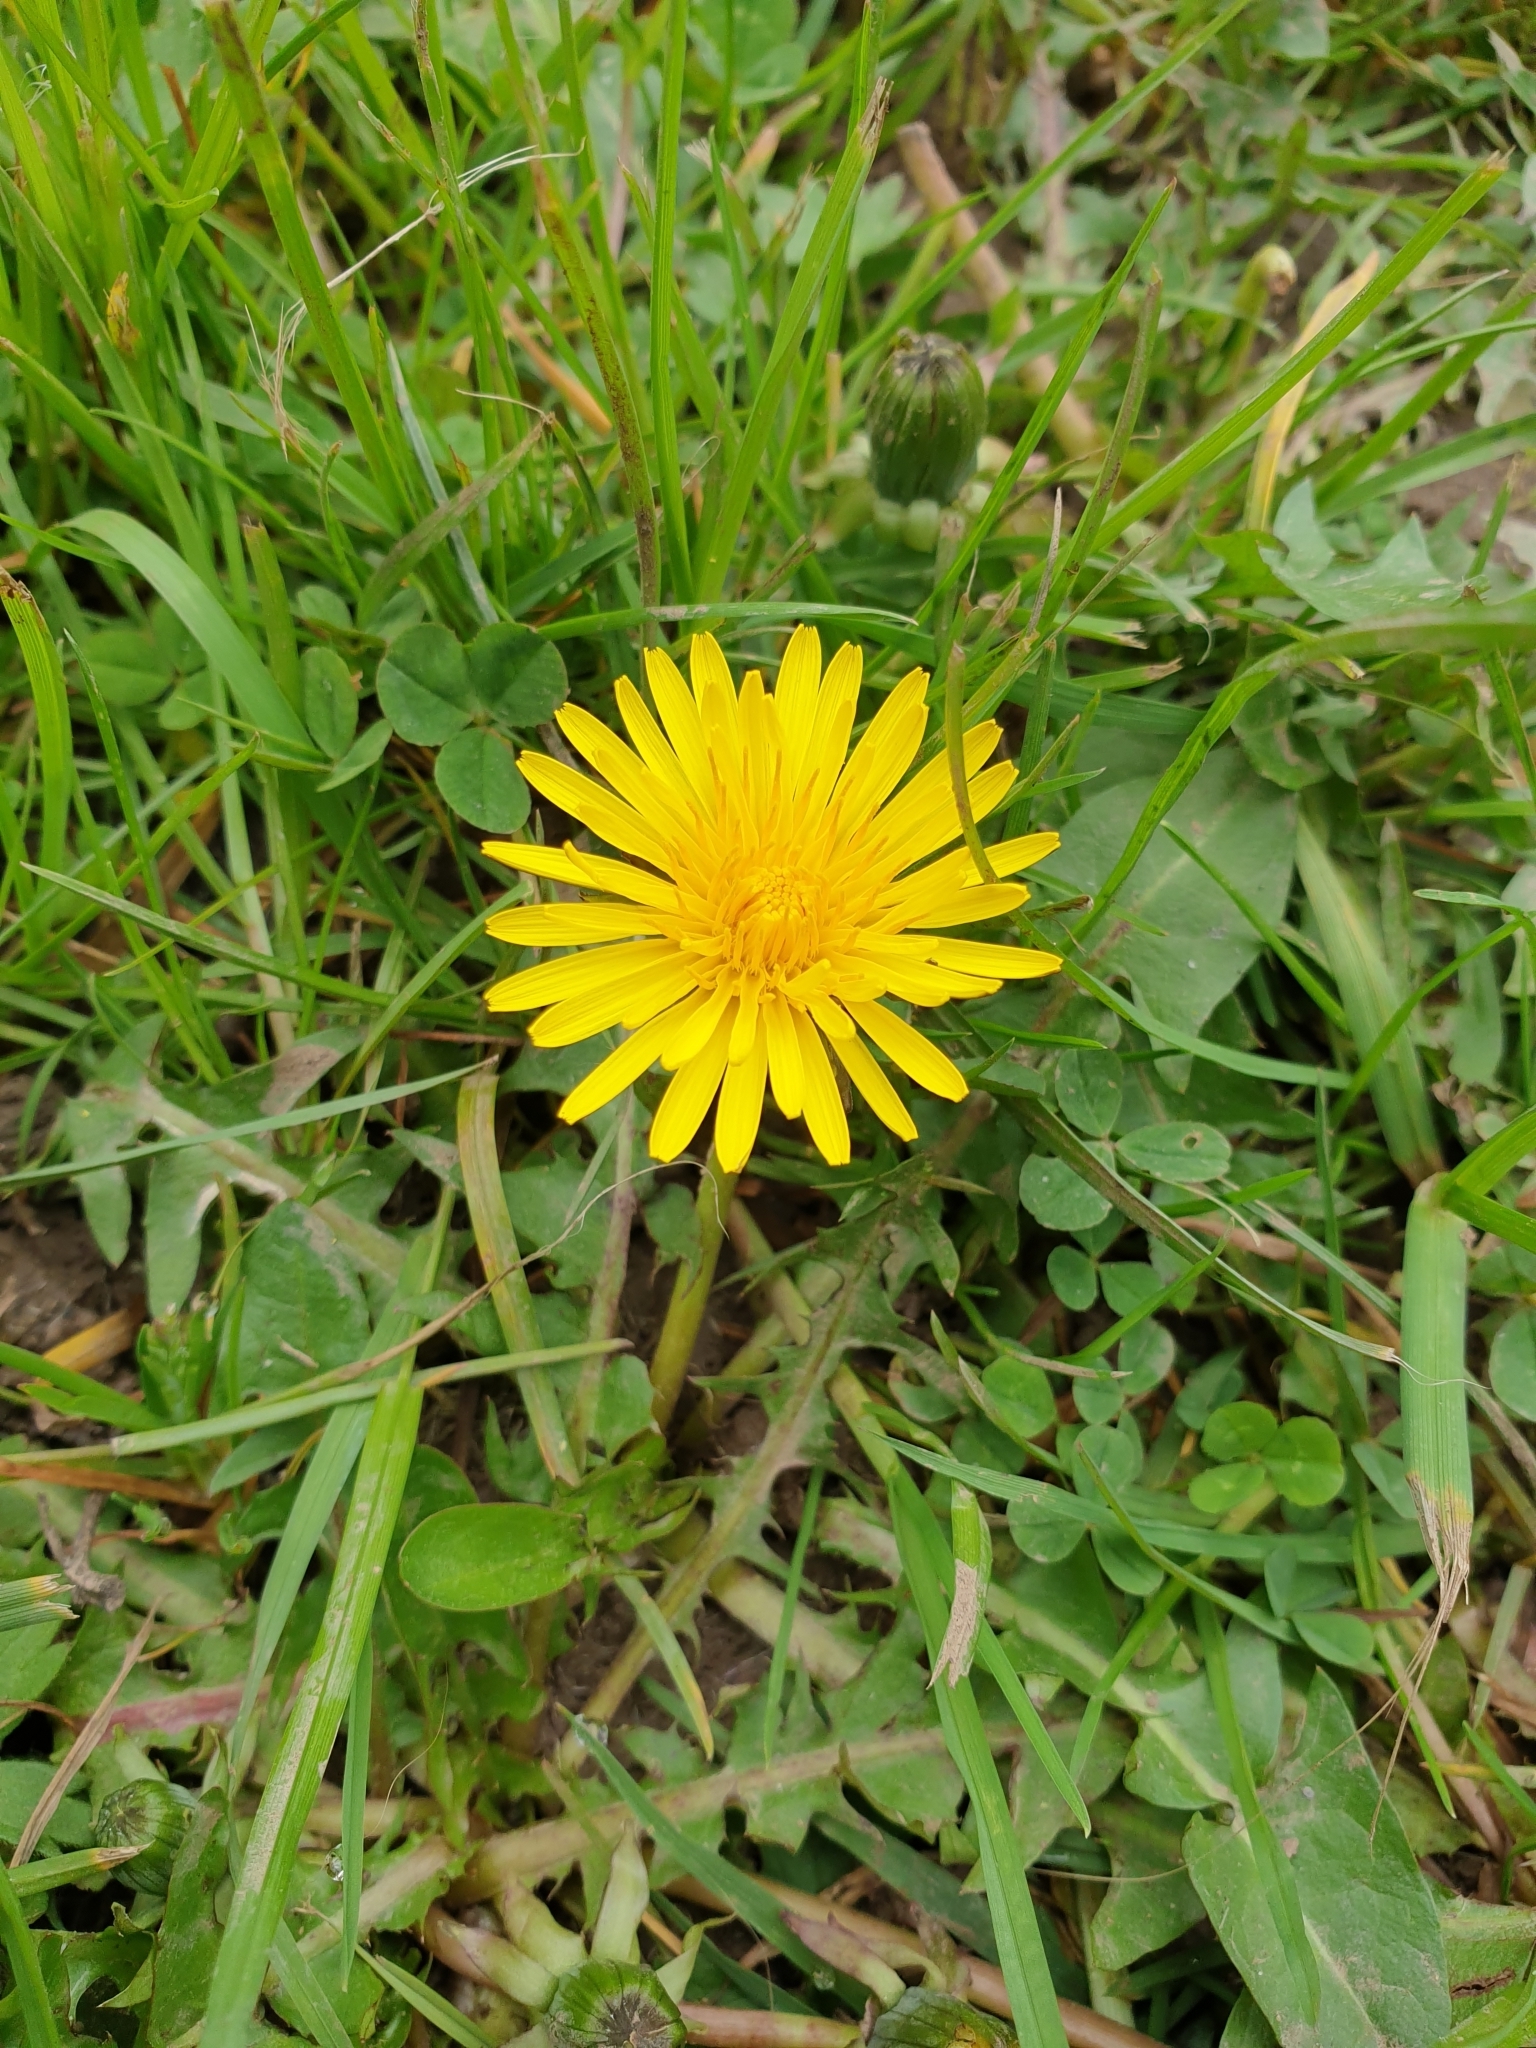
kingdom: Plantae
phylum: Tracheophyta
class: Magnoliopsida
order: Asterales
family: Asteraceae
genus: Taraxacum
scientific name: Taraxacum officinale
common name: Common dandelion
